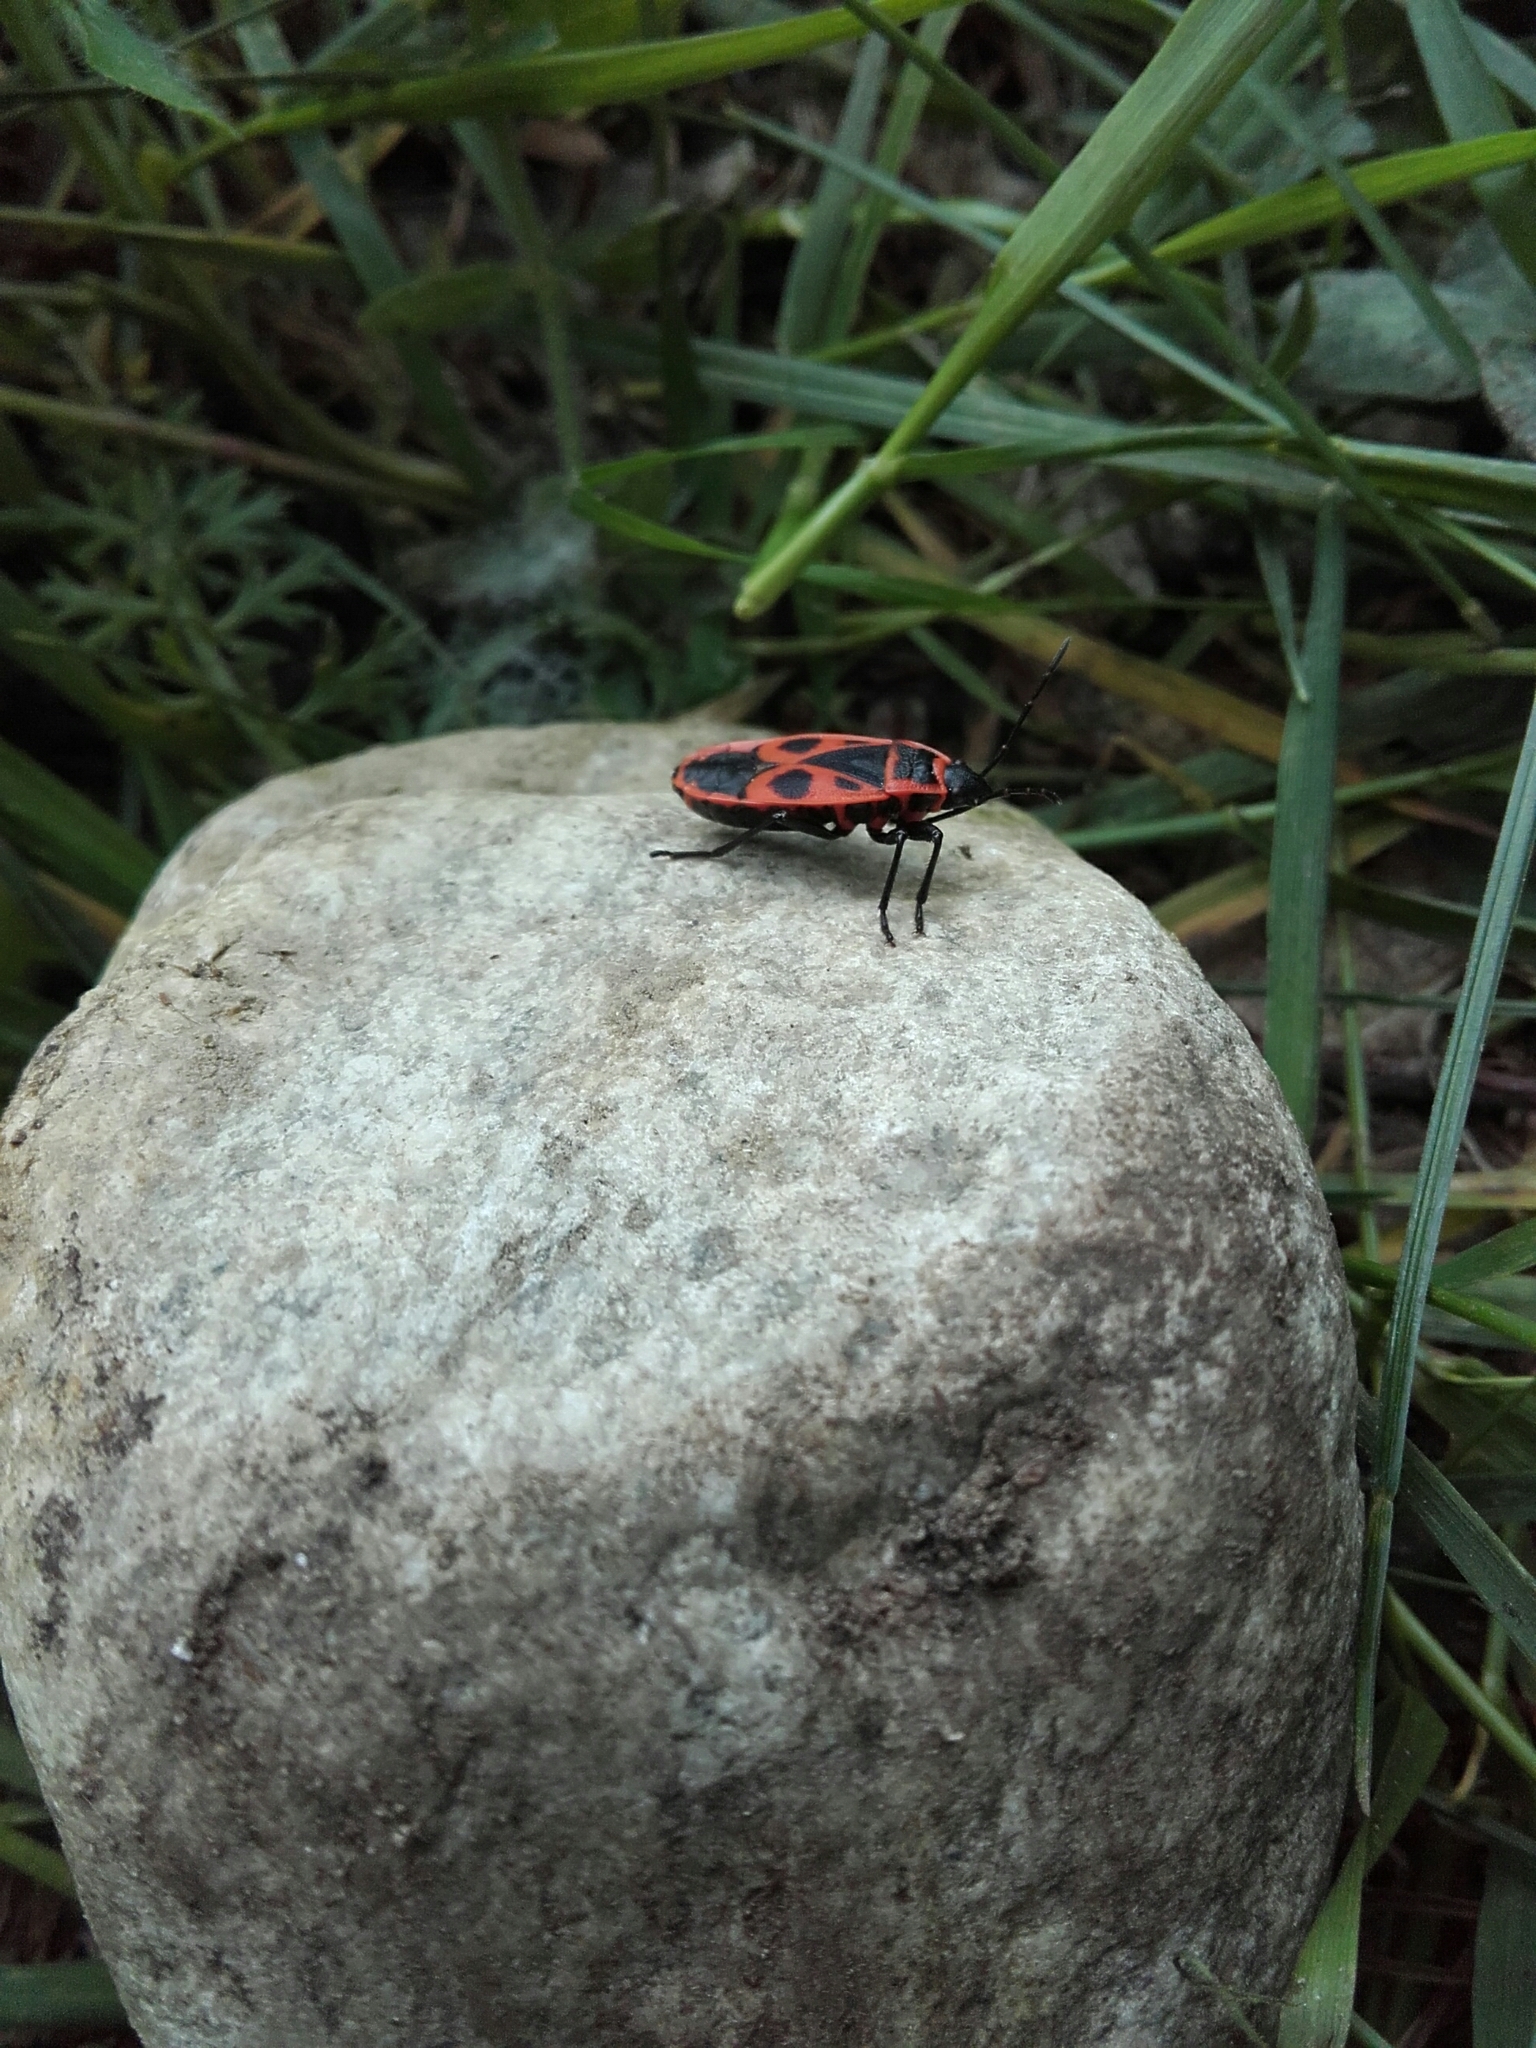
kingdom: Animalia
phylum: Arthropoda
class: Insecta
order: Hemiptera
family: Pyrrhocoridae
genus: Pyrrhocoris
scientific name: Pyrrhocoris apterus
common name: Firebug
